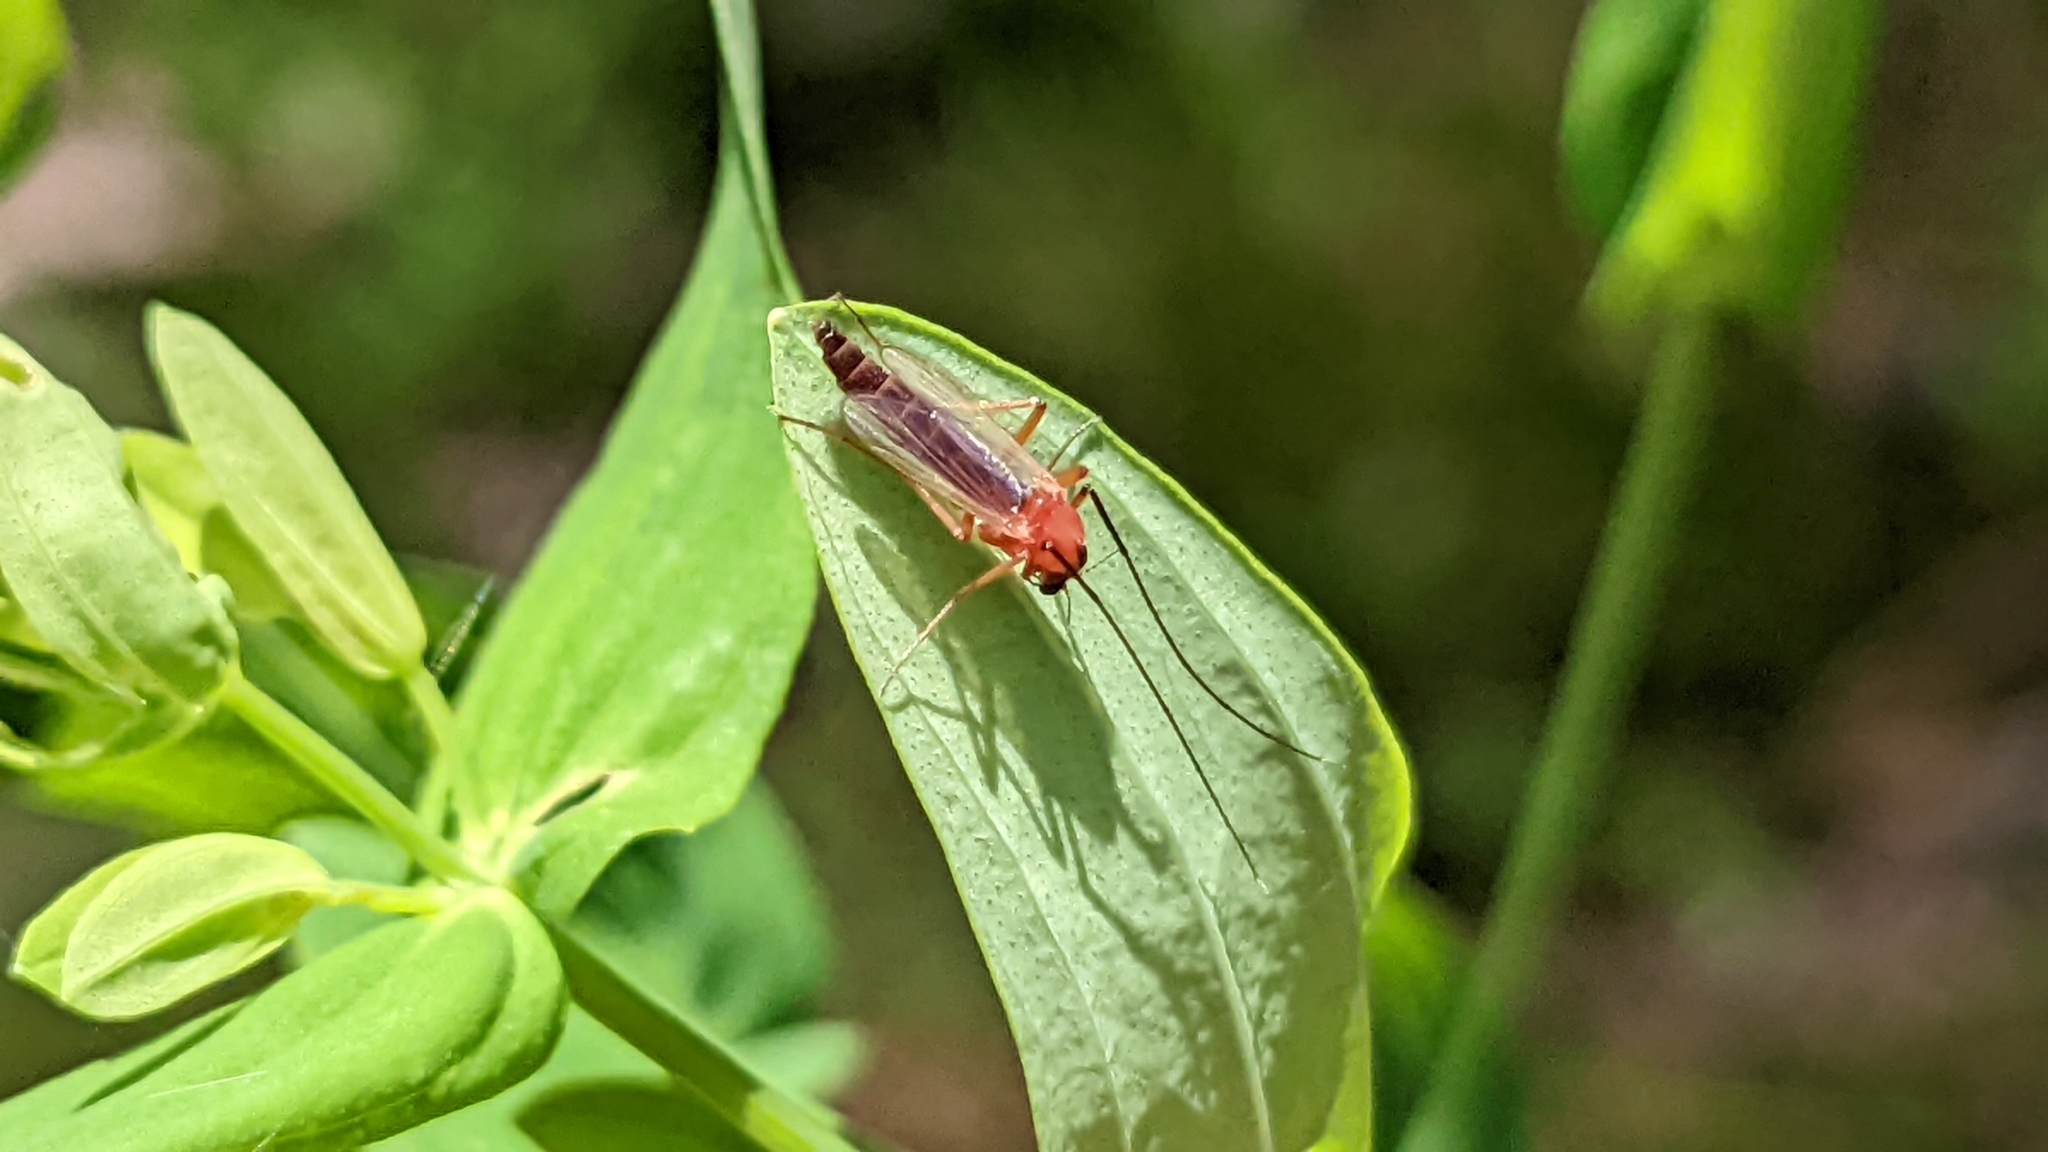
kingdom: Animalia
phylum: Arthropoda
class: Insecta
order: Diptera
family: Chironomidae
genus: Chironomus
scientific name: Chironomus ochreatus
